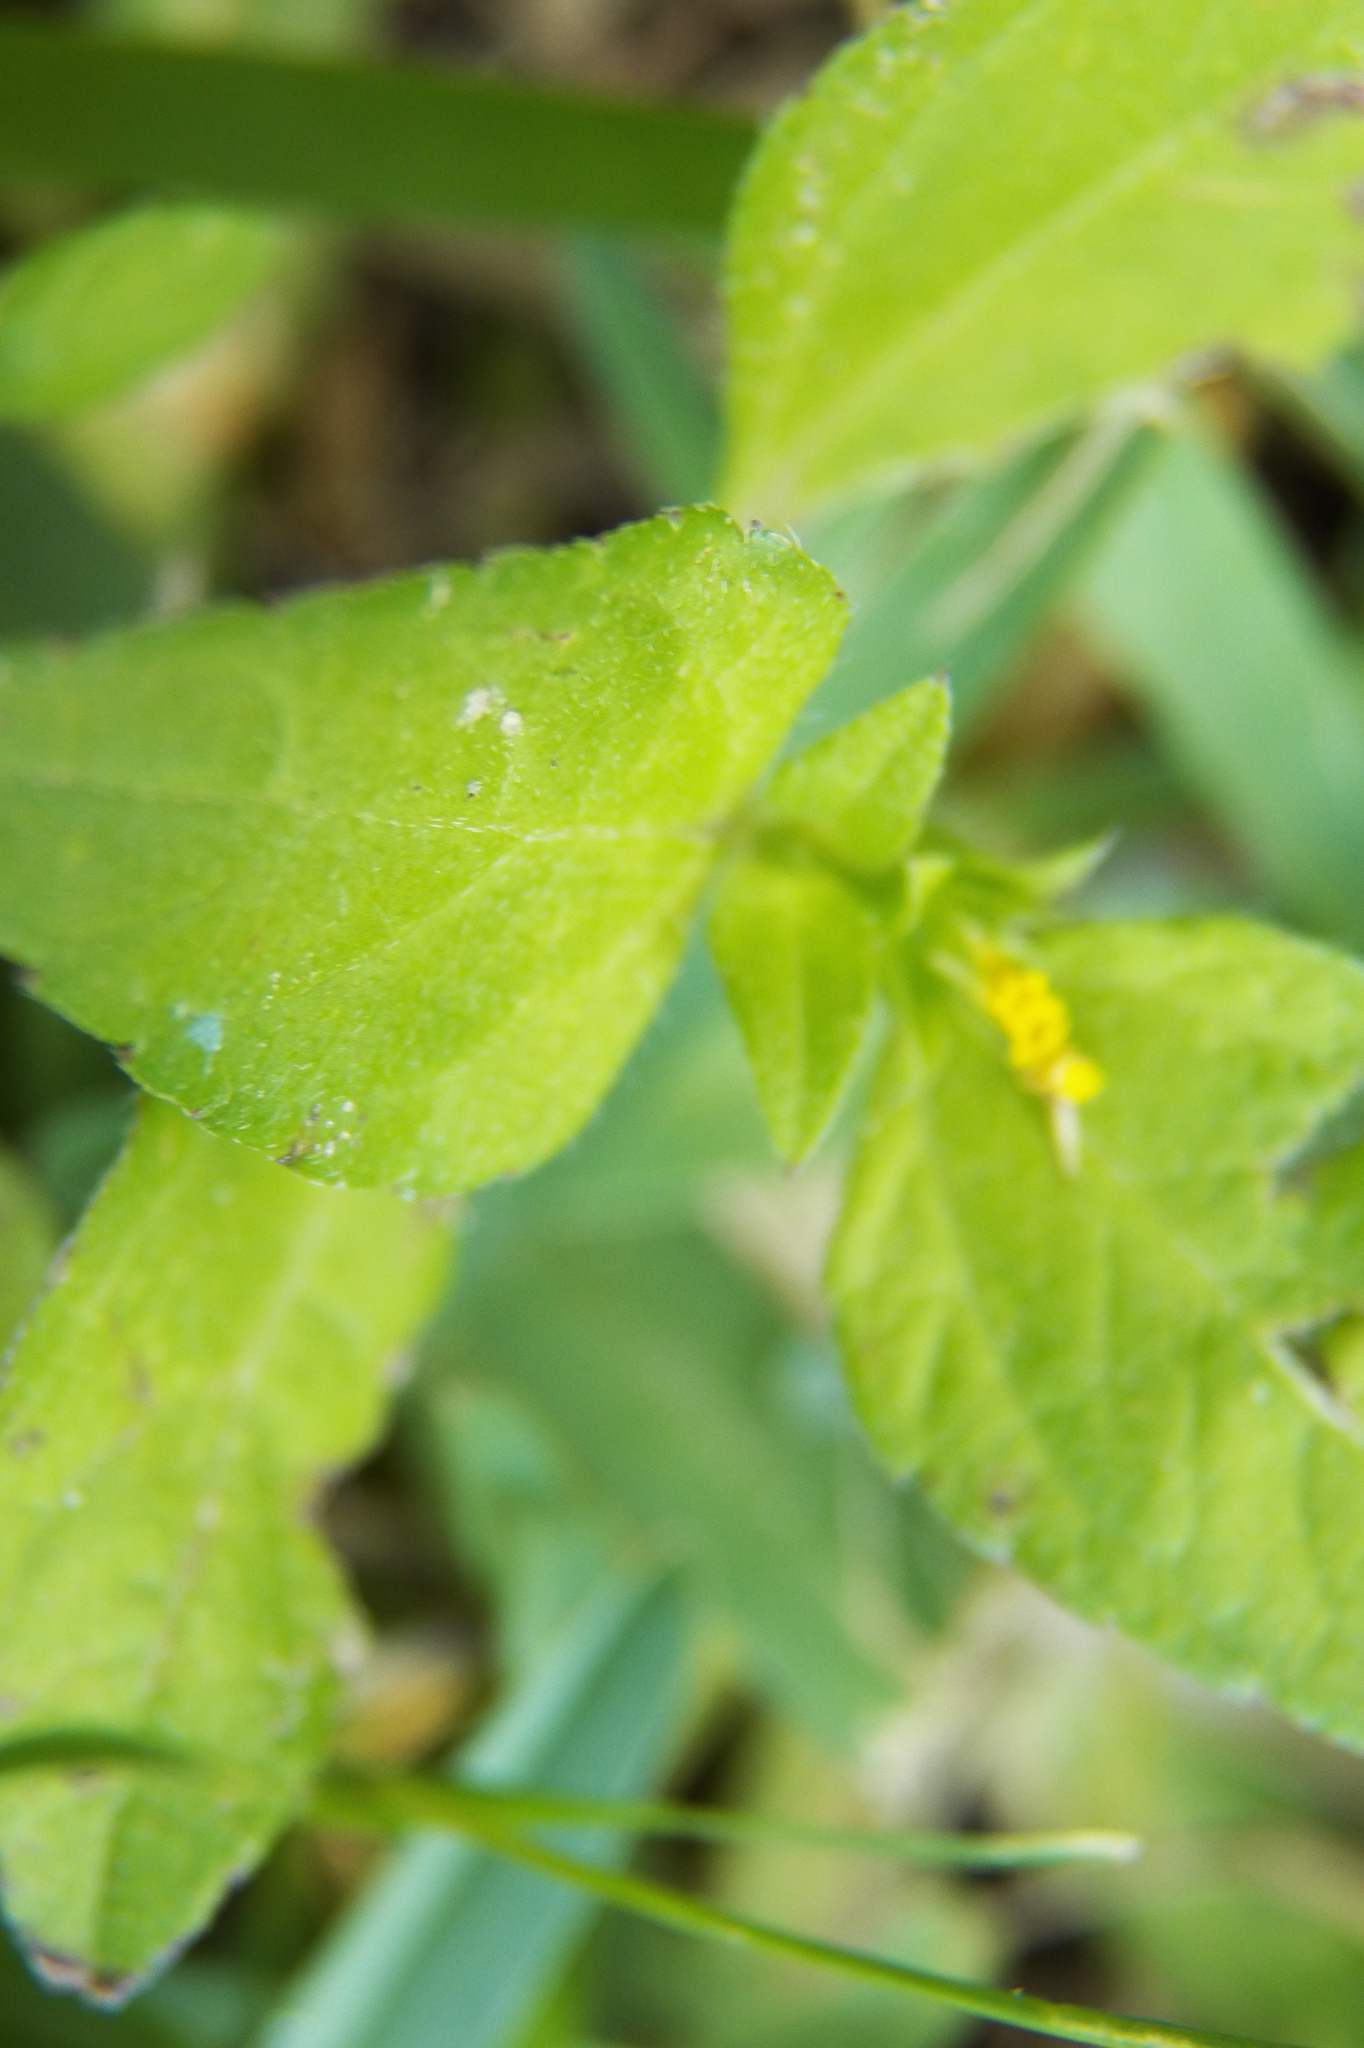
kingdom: Plantae
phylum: Tracheophyta
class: Magnoliopsida
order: Asterales
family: Asteraceae
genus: Calyptocarpus
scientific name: Calyptocarpus vialis
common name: Straggler daisy
